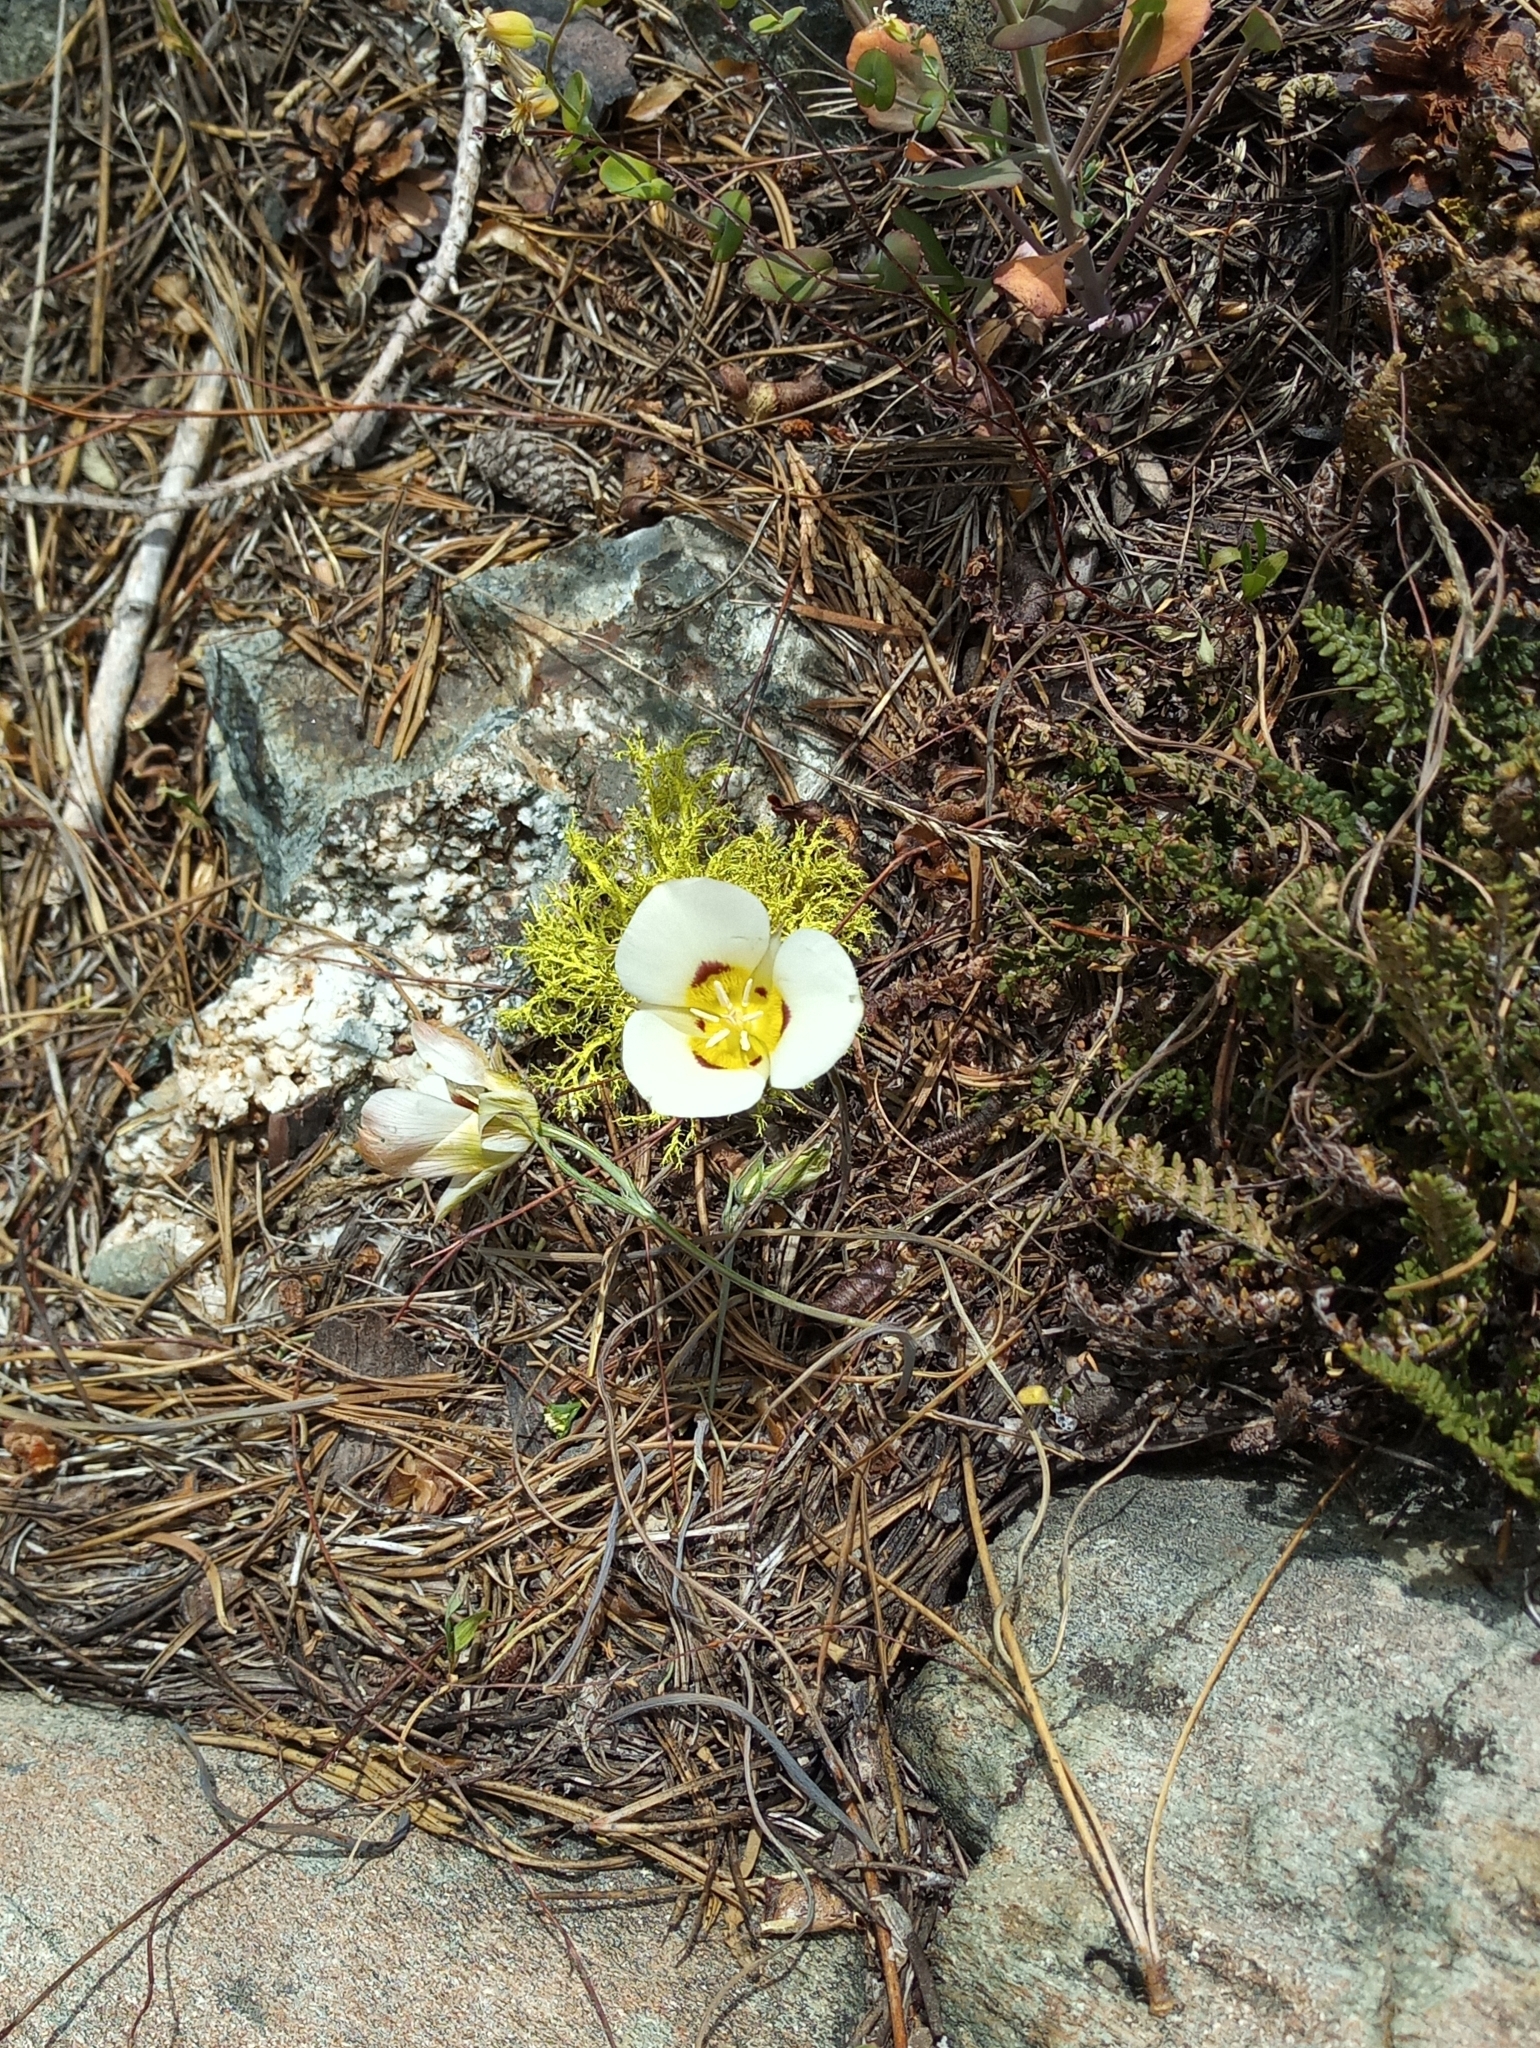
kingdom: Plantae
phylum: Tracheophyta
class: Liliopsida
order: Liliales
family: Liliaceae
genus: Calochortus
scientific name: Calochortus leichtlinii
